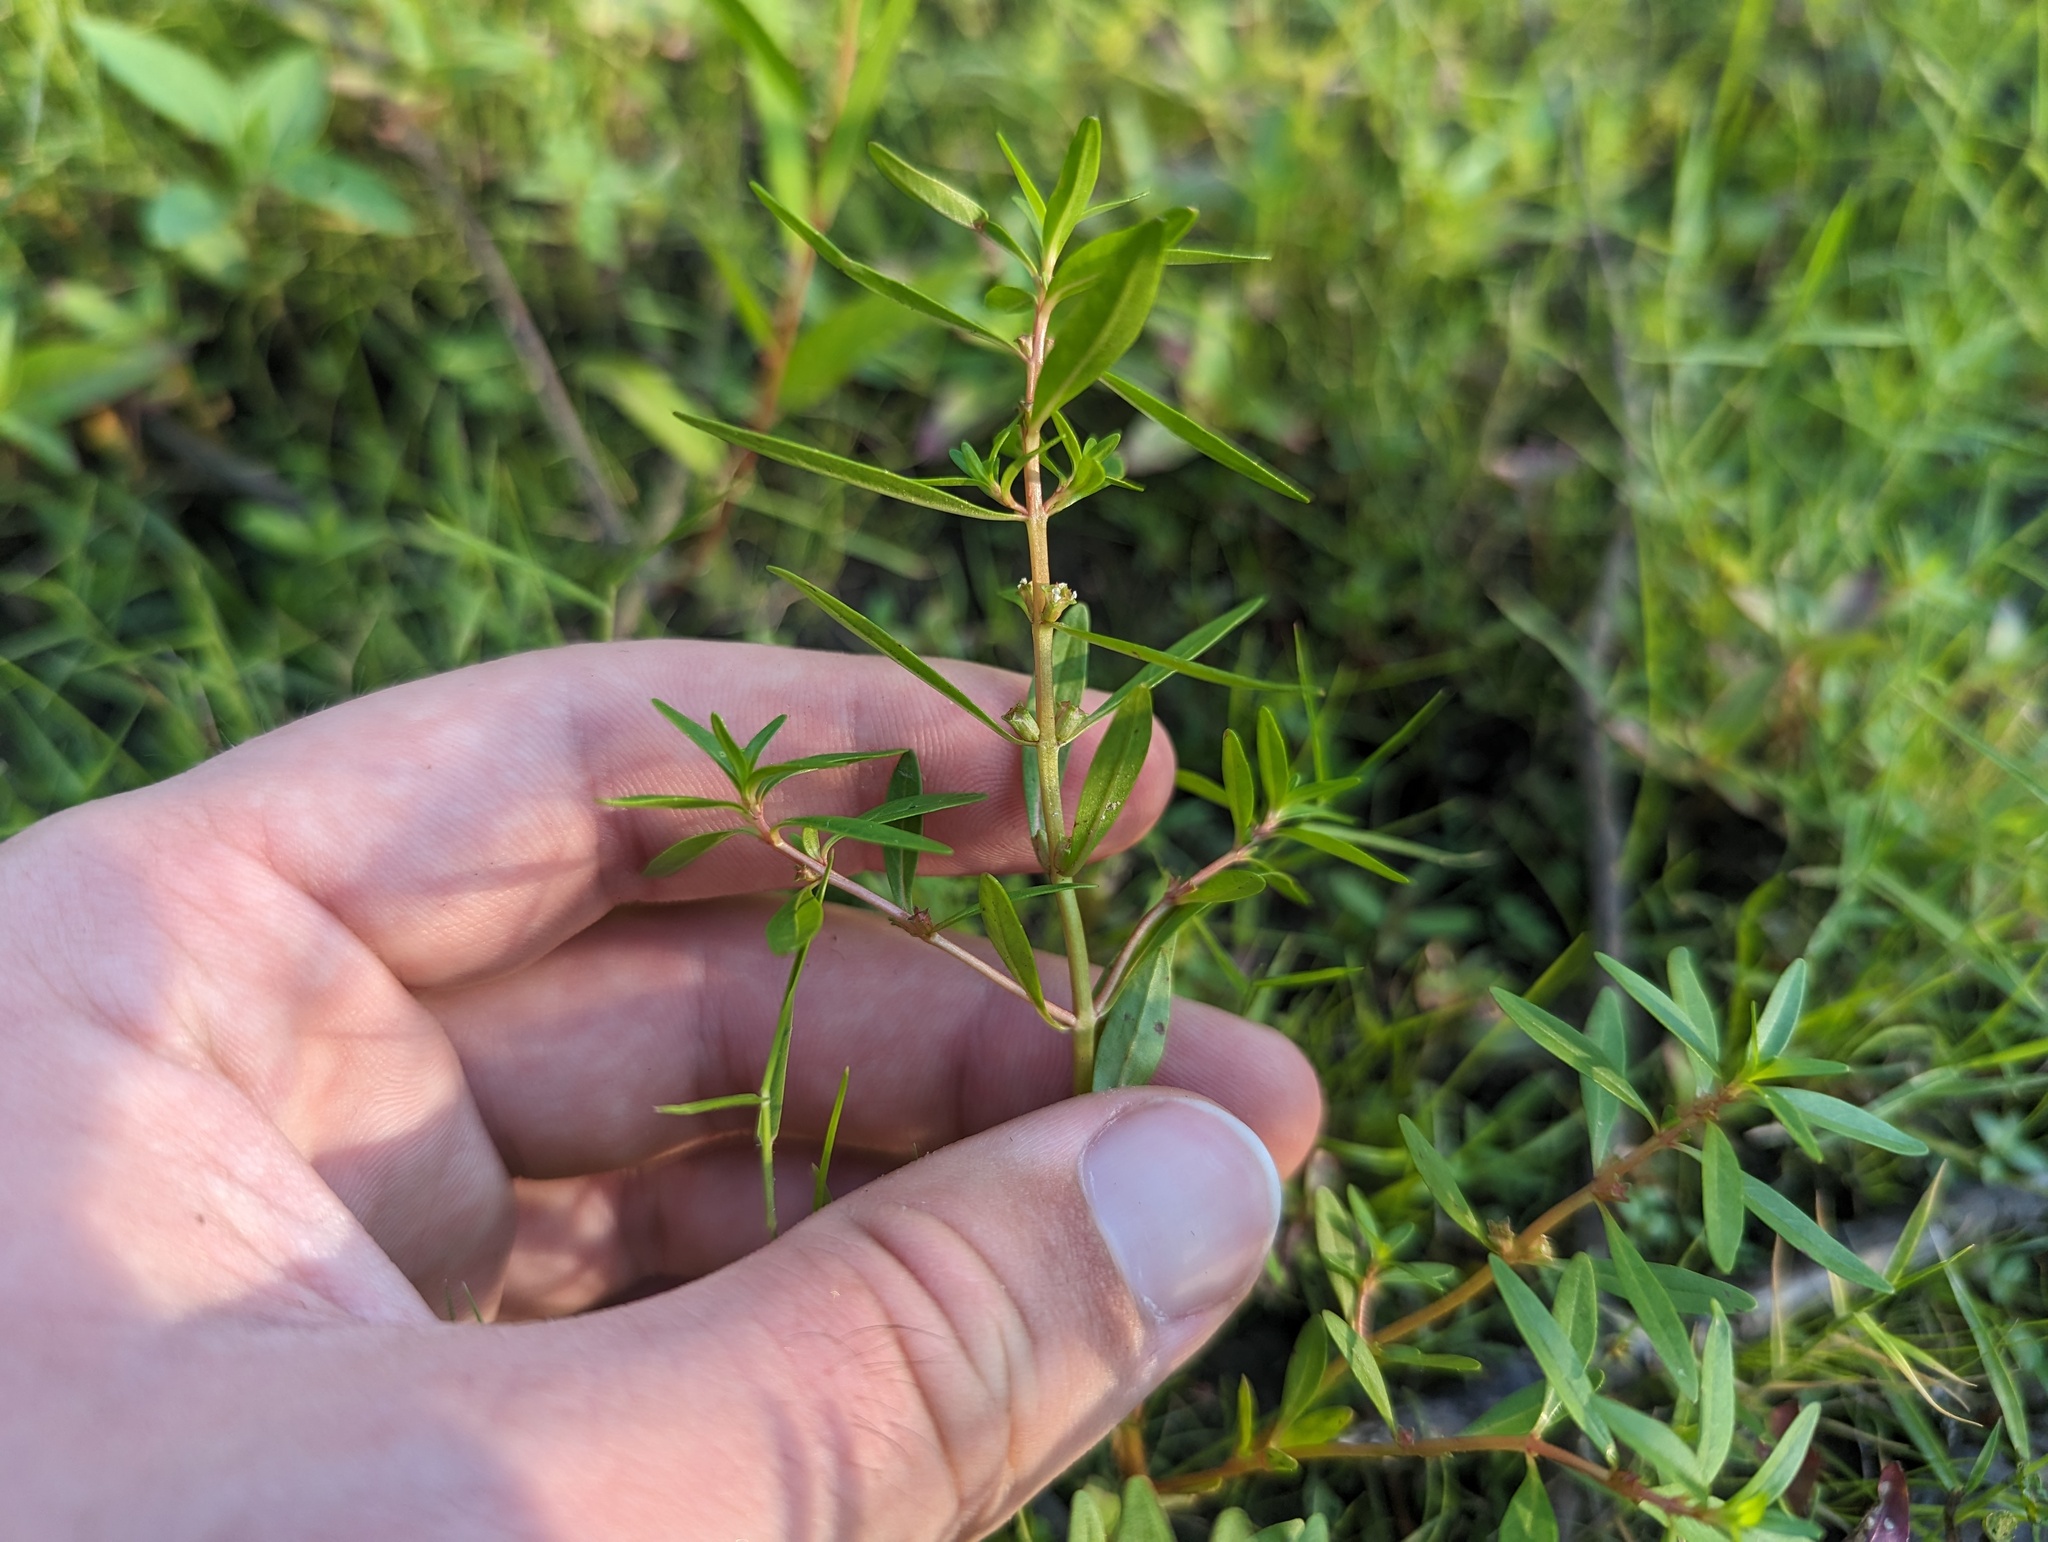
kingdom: Plantae
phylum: Tracheophyta
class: Magnoliopsida
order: Myrtales
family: Lythraceae
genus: Rotala
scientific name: Rotala ramosior
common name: Lowland rotala
